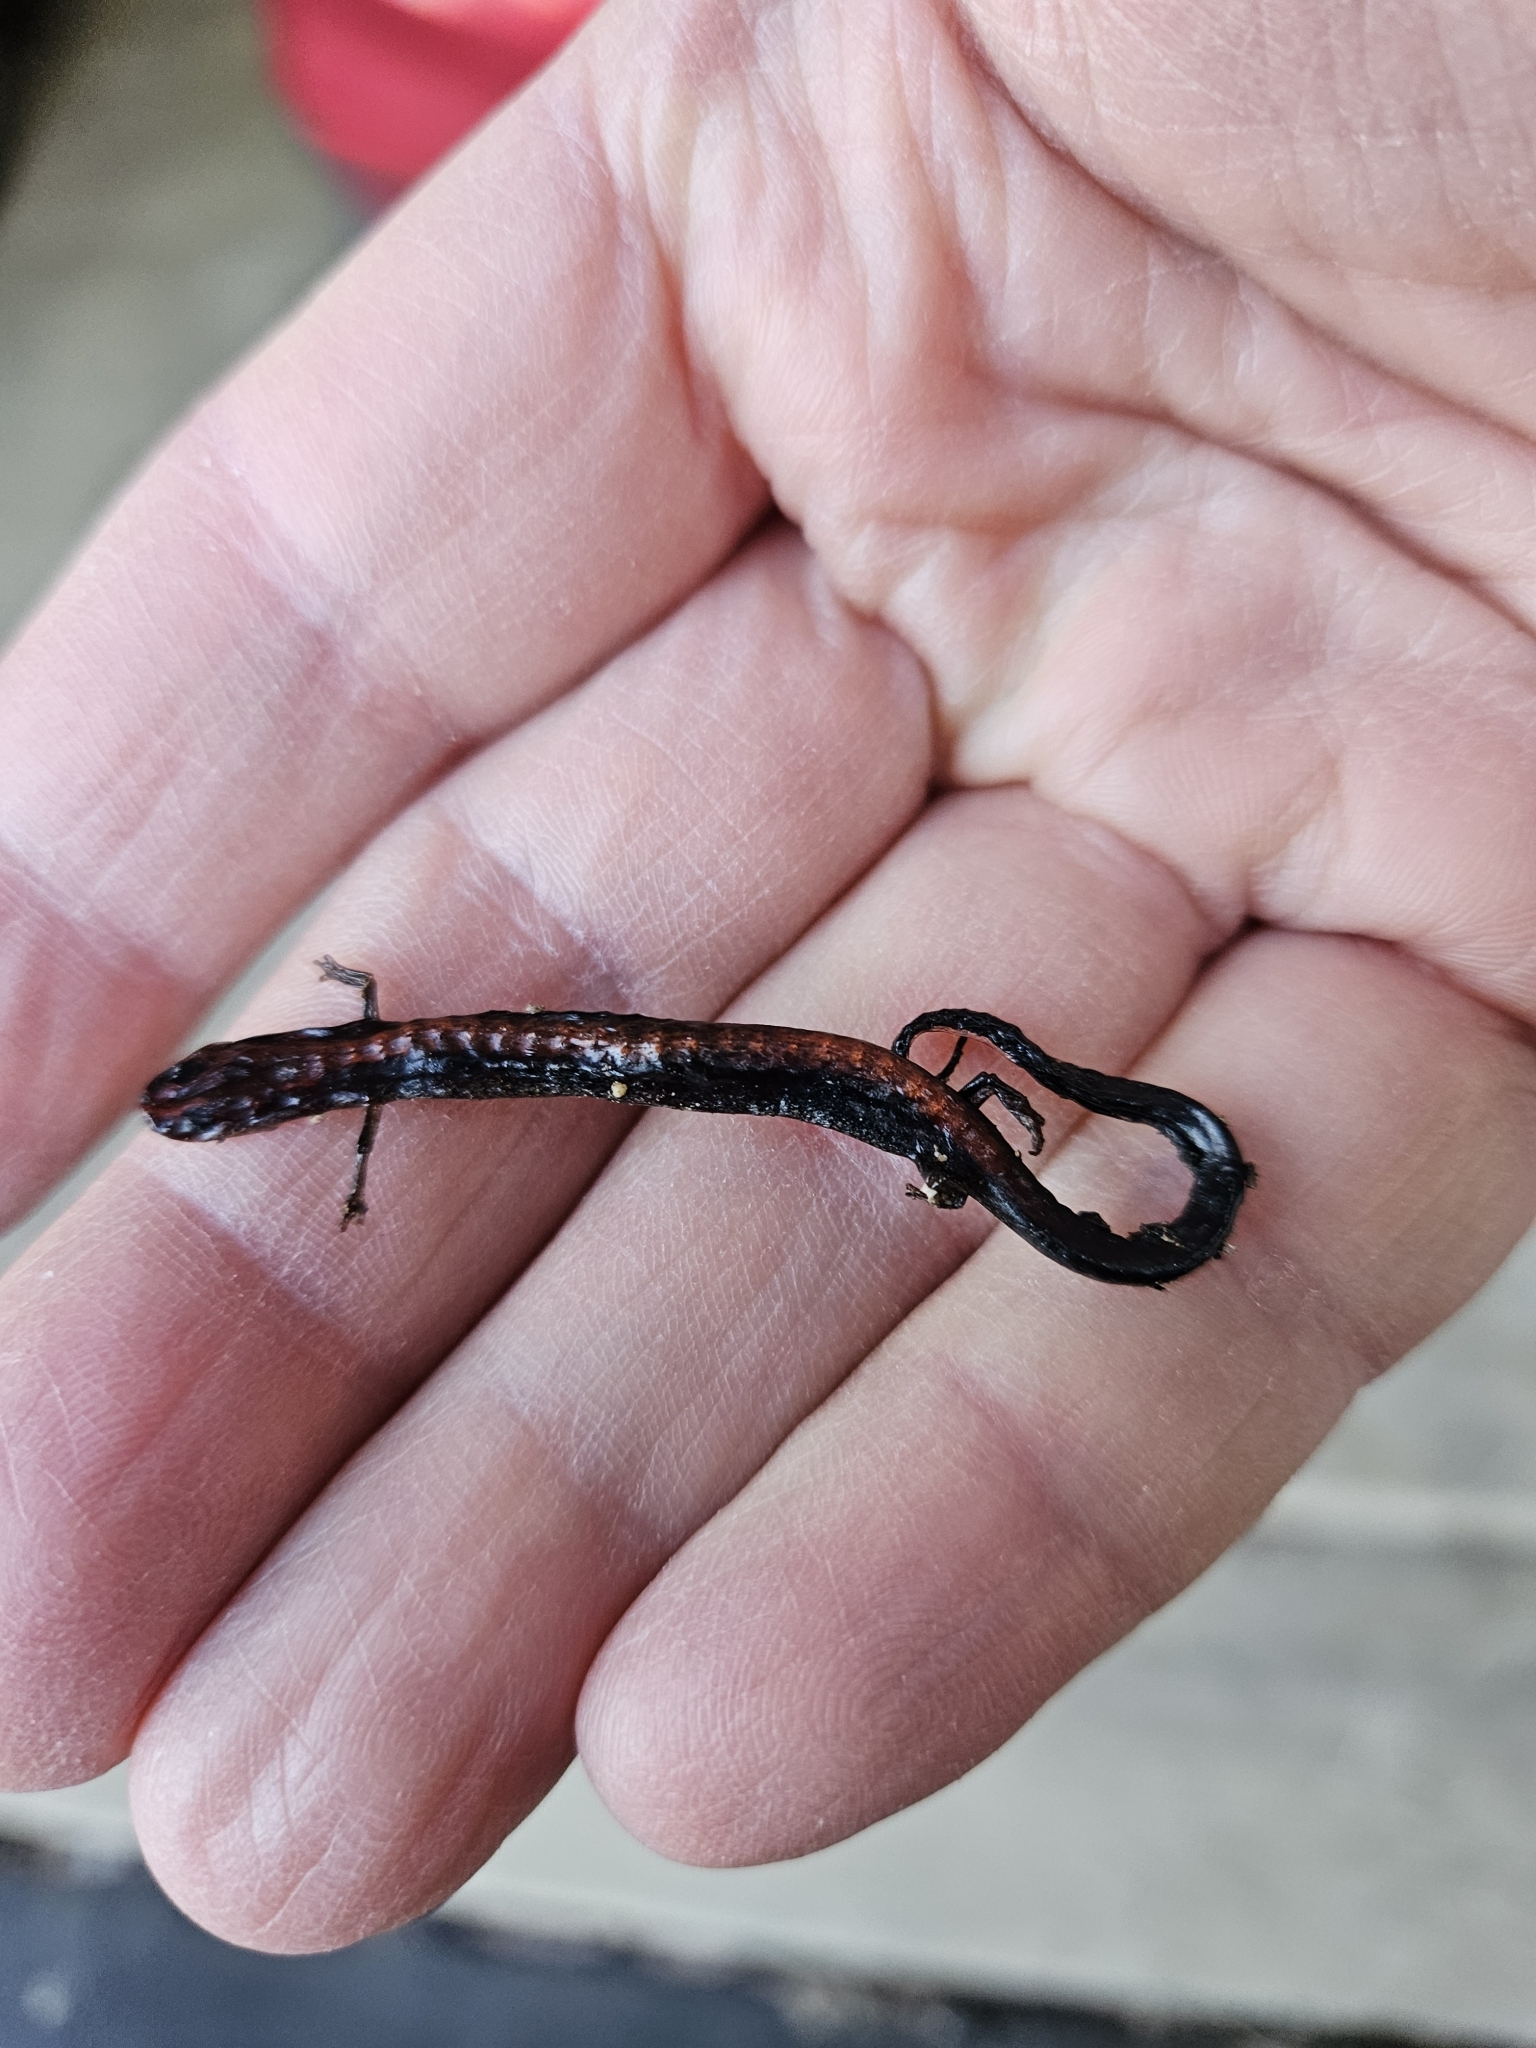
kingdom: Animalia
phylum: Chordata
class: Amphibia
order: Caudata
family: Plethodontidae
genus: Plethodon
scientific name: Plethodon cinereus
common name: Redback salamander
